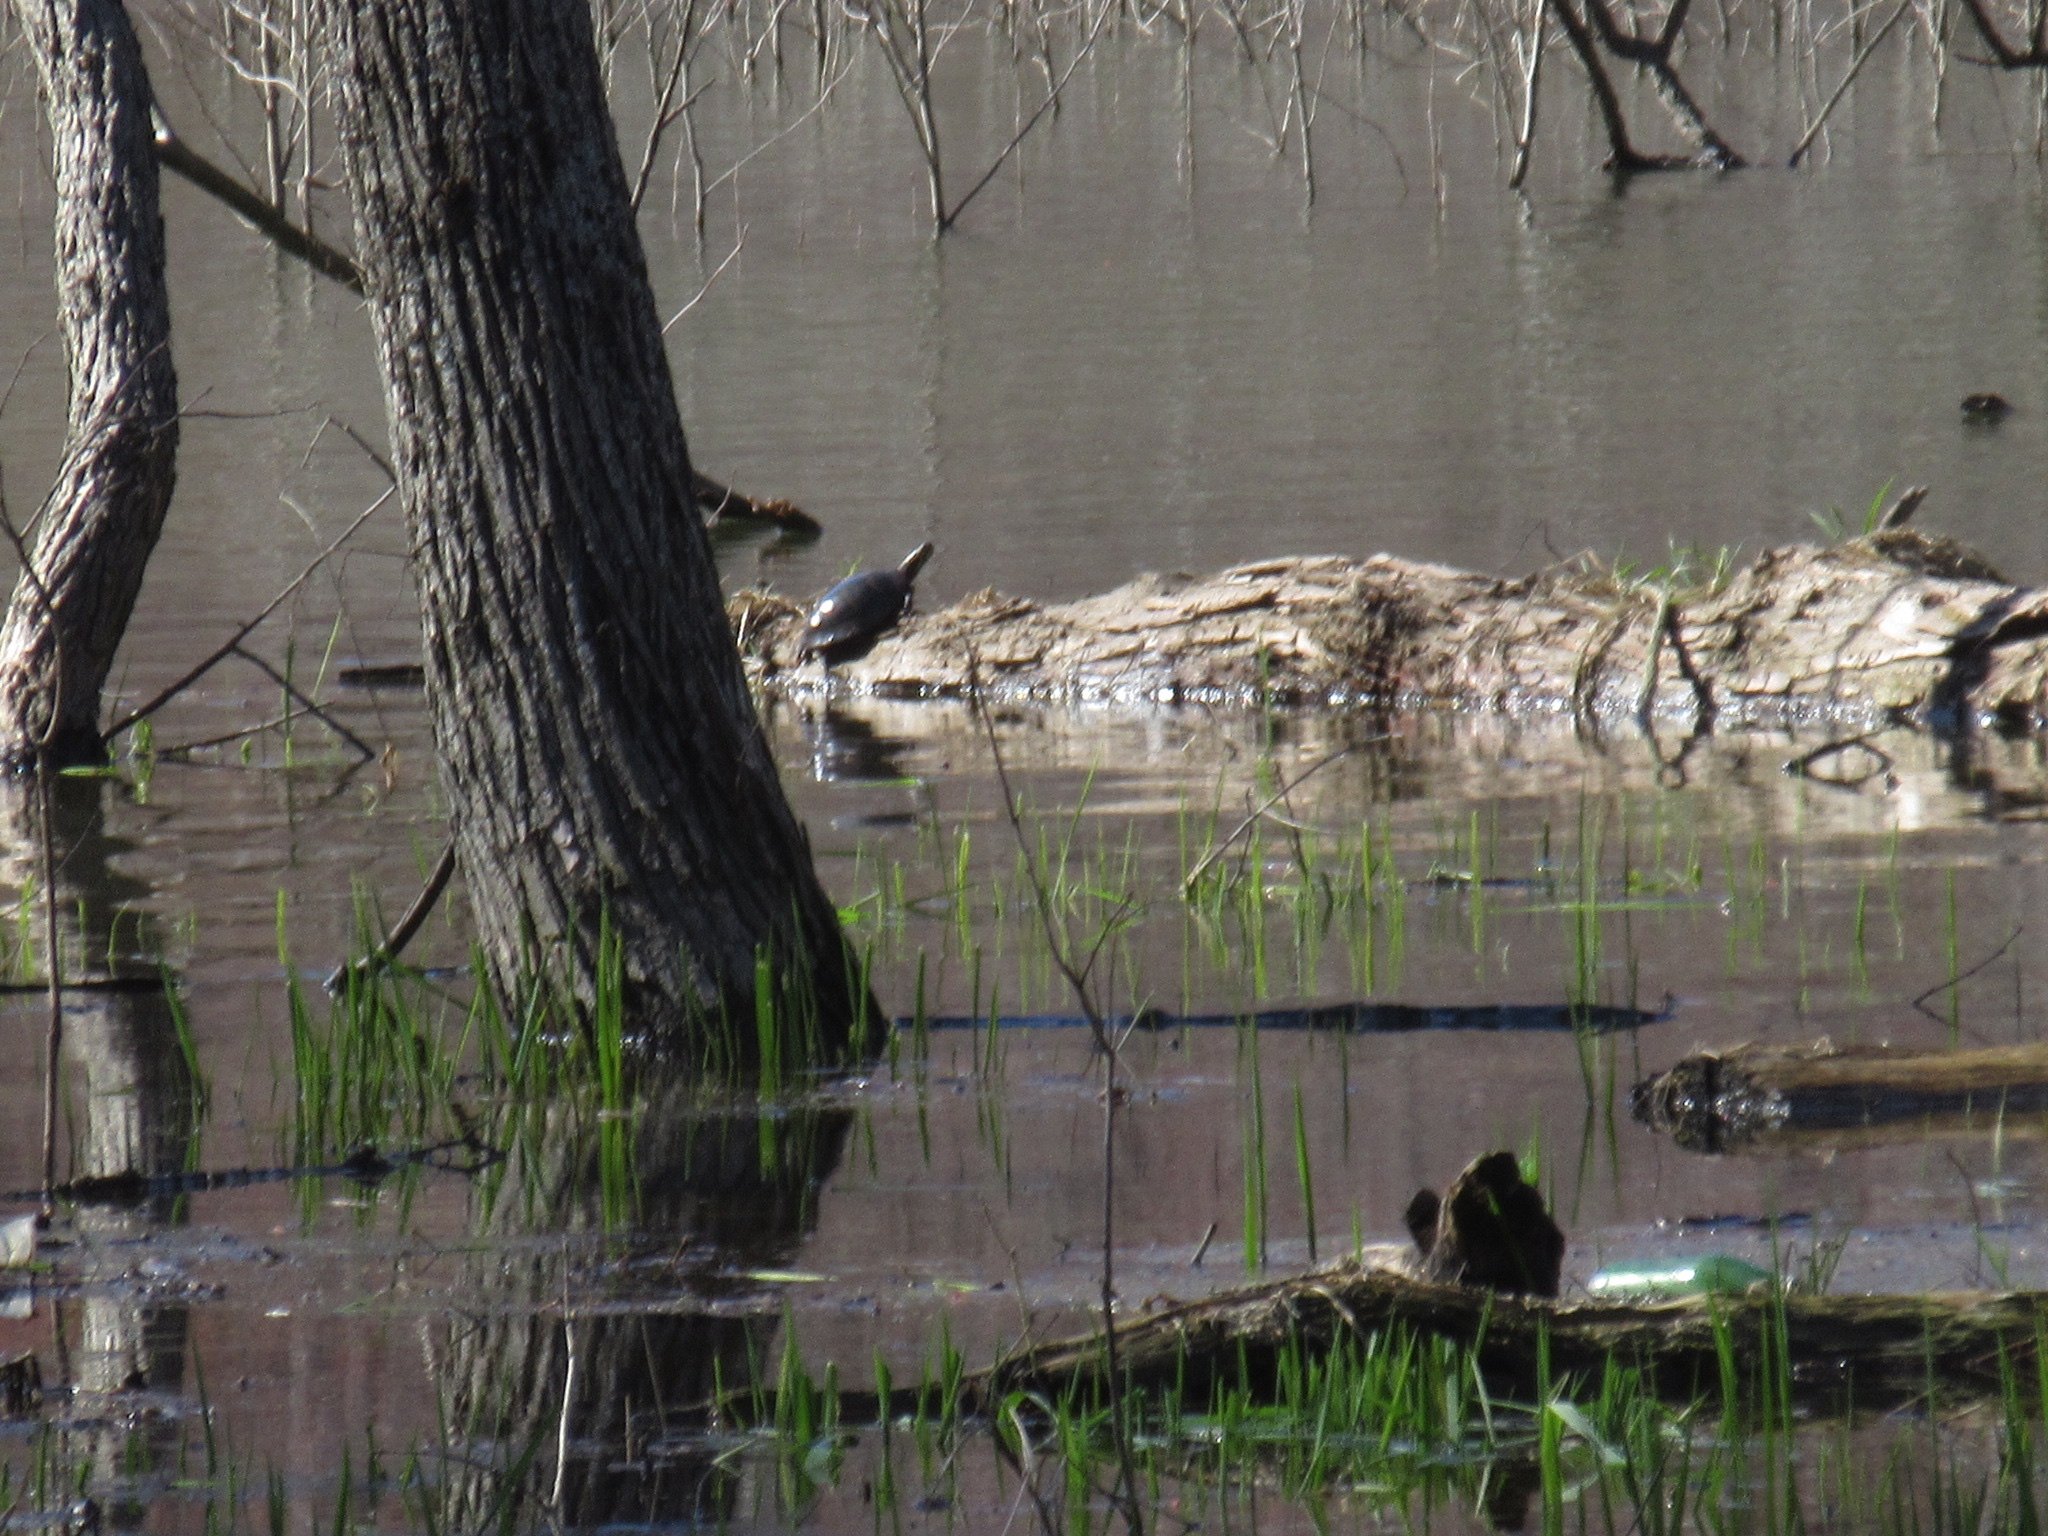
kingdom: Animalia
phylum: Chordata
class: Testudines
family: Emydidae
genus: Chrysemys
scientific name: Chrysemys picta
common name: Painted turtle
